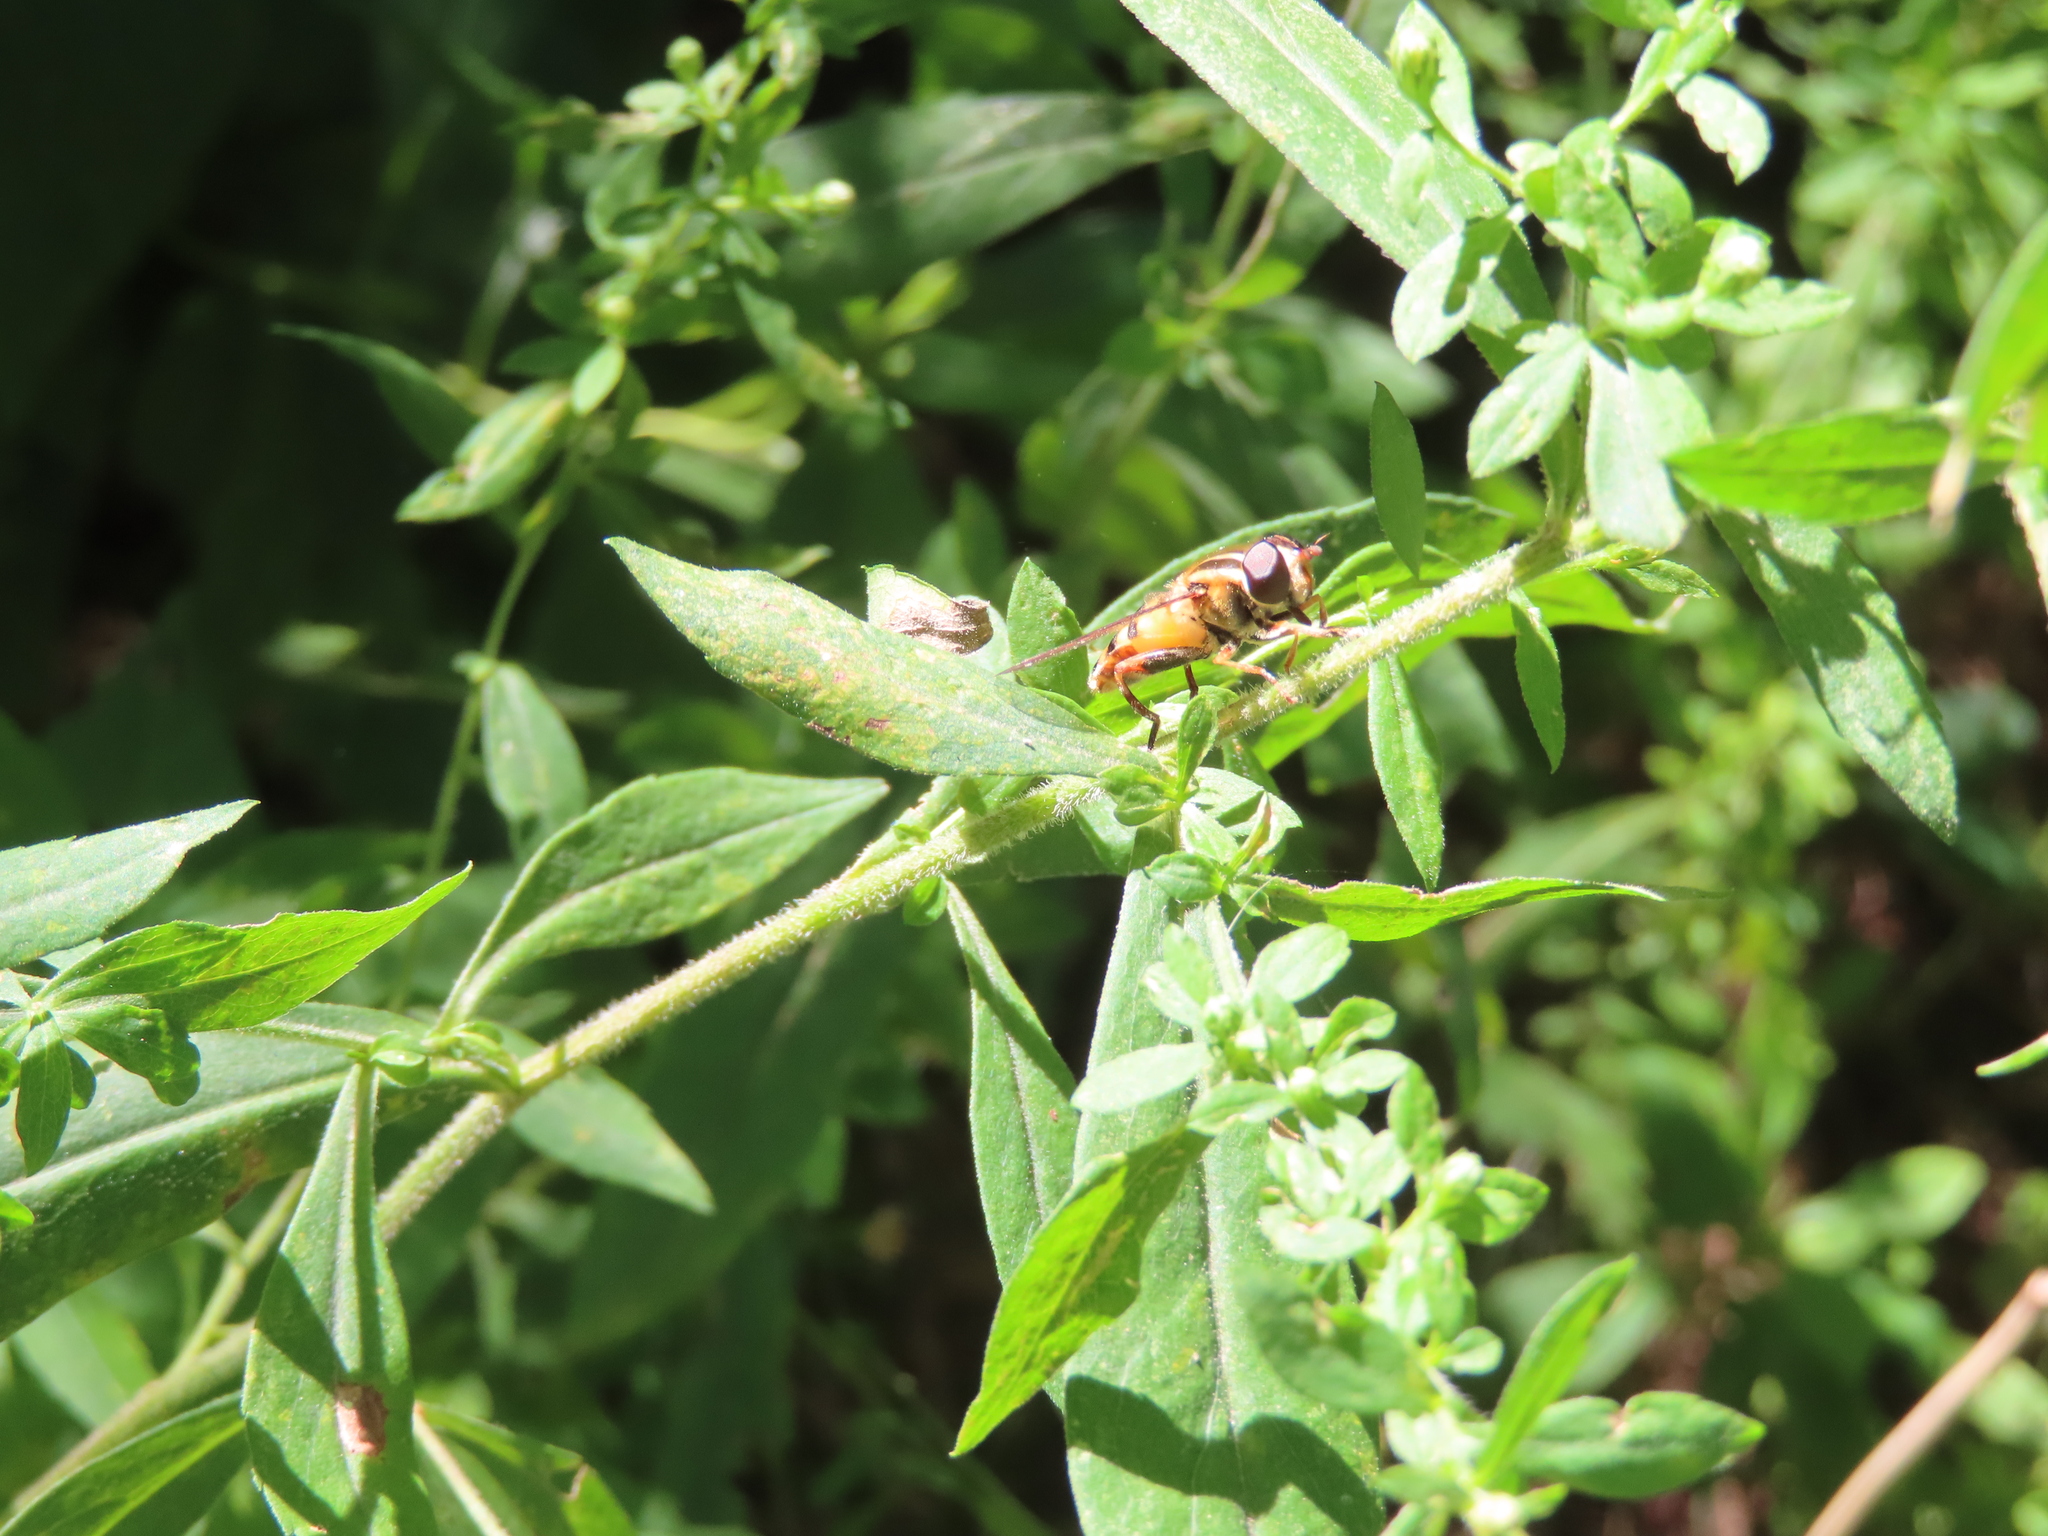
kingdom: Animalia
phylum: Arthropoda
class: Insecta
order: Diptera
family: Syrphidae
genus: Helophilus
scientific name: Helophilus fasciatus
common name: Narrow-headed marsh fly
